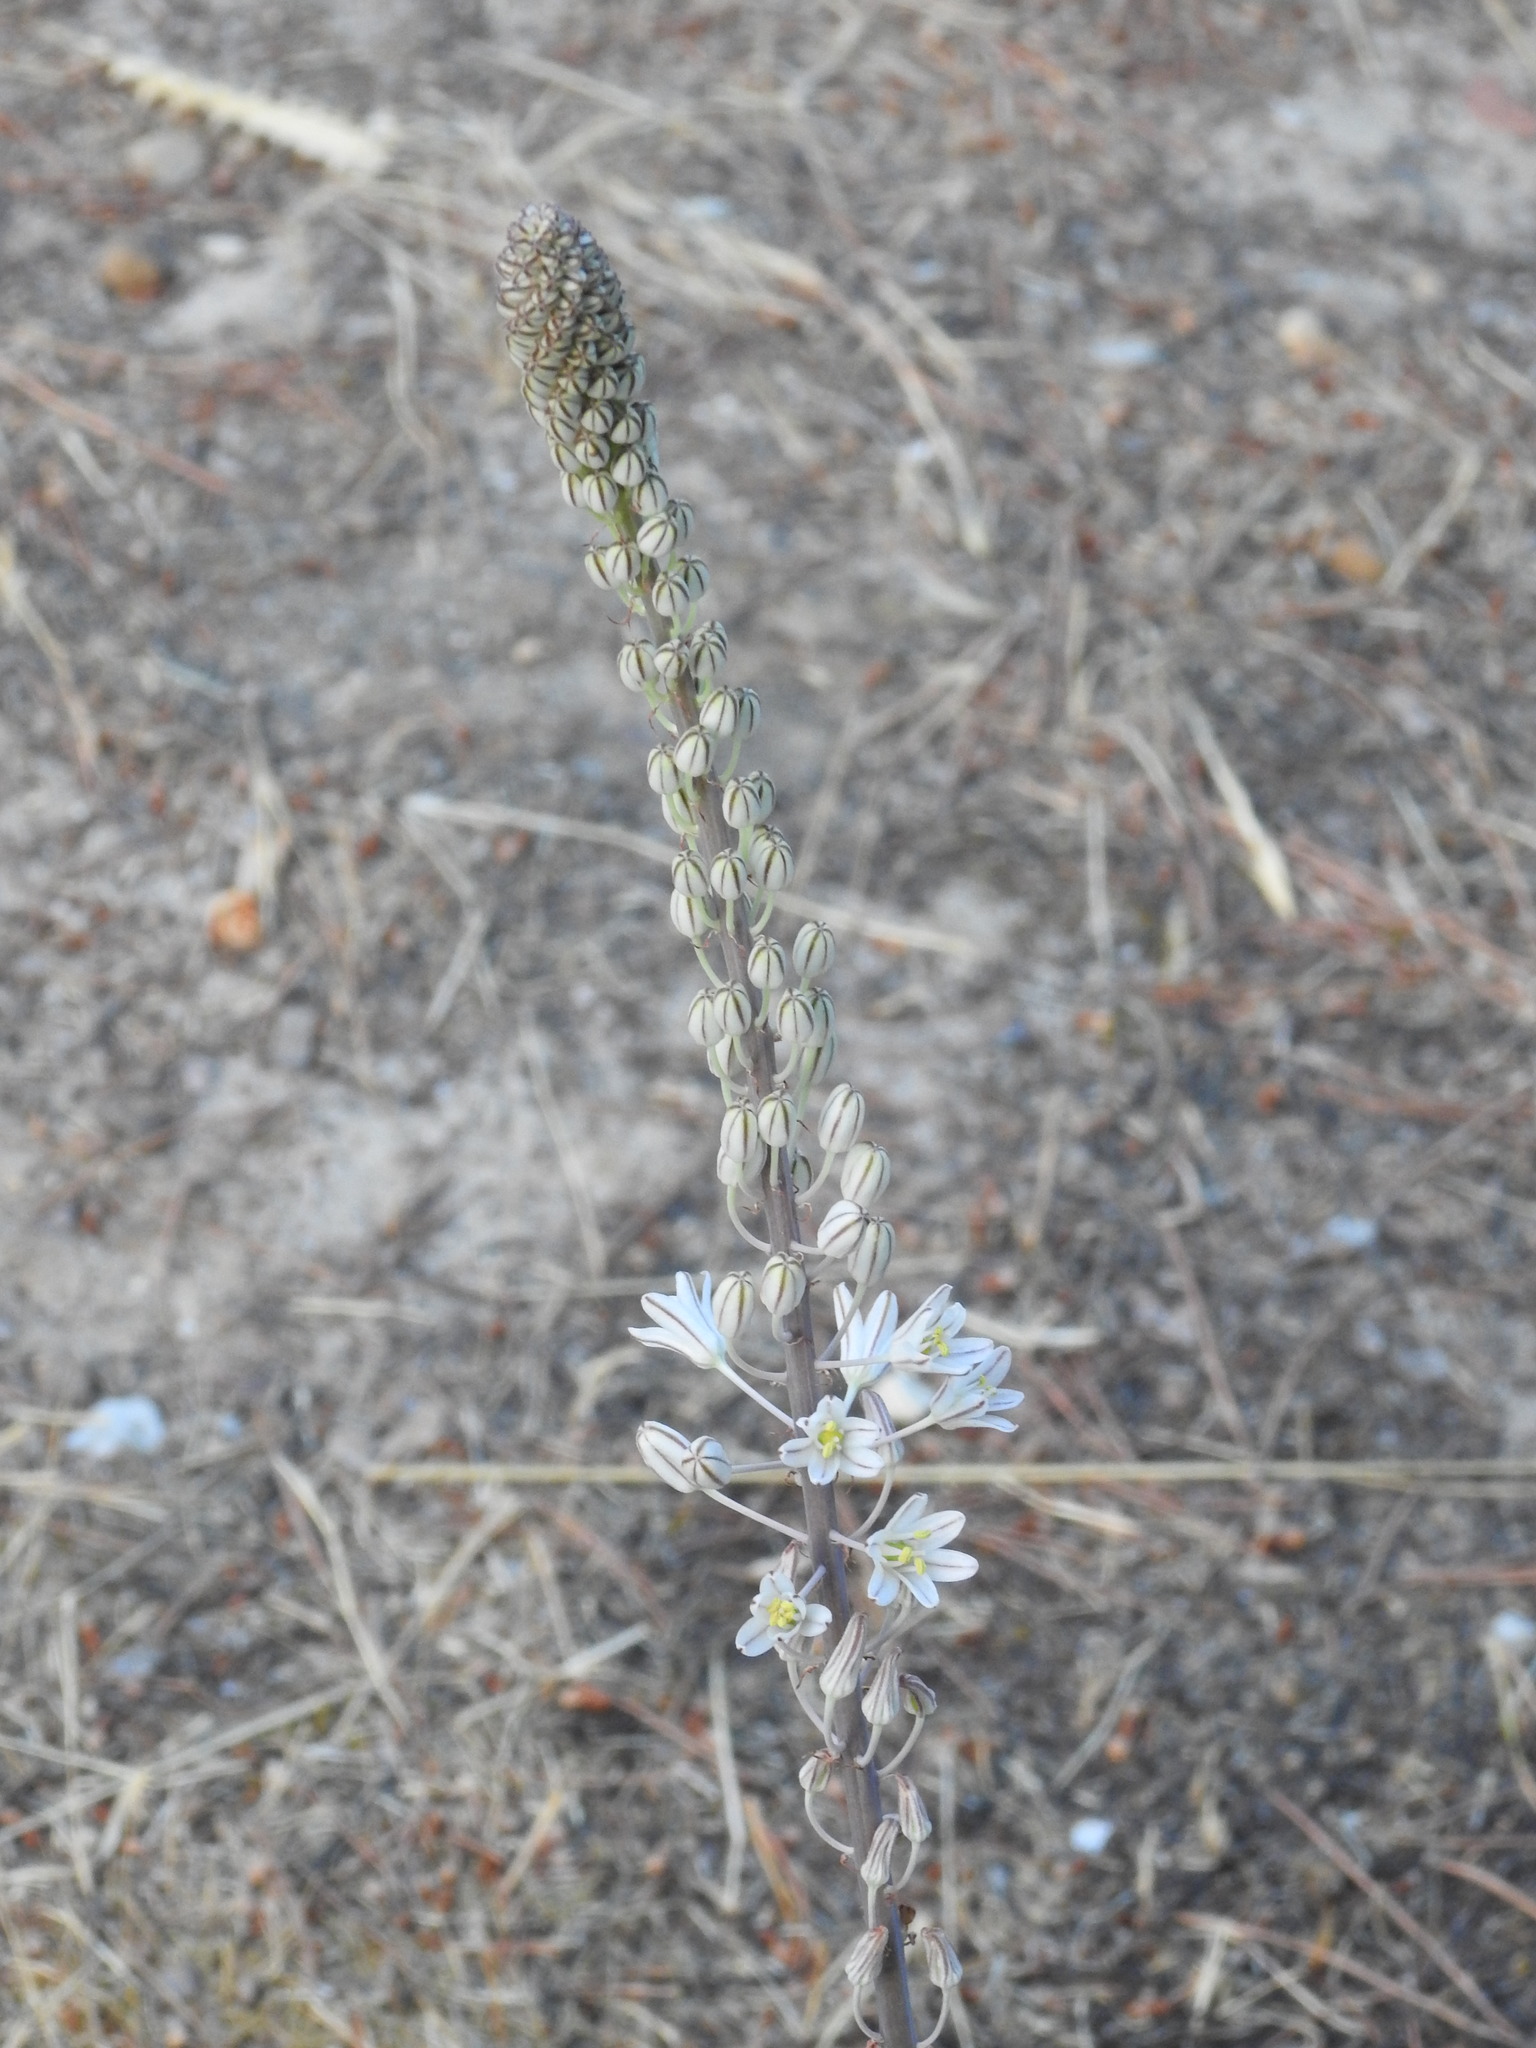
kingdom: Plantae
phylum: Tracheophyta
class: Liliopsida
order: Asparagales
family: Asparagaceae
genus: Drimia
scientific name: Drimia maritima
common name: Maritime squill
